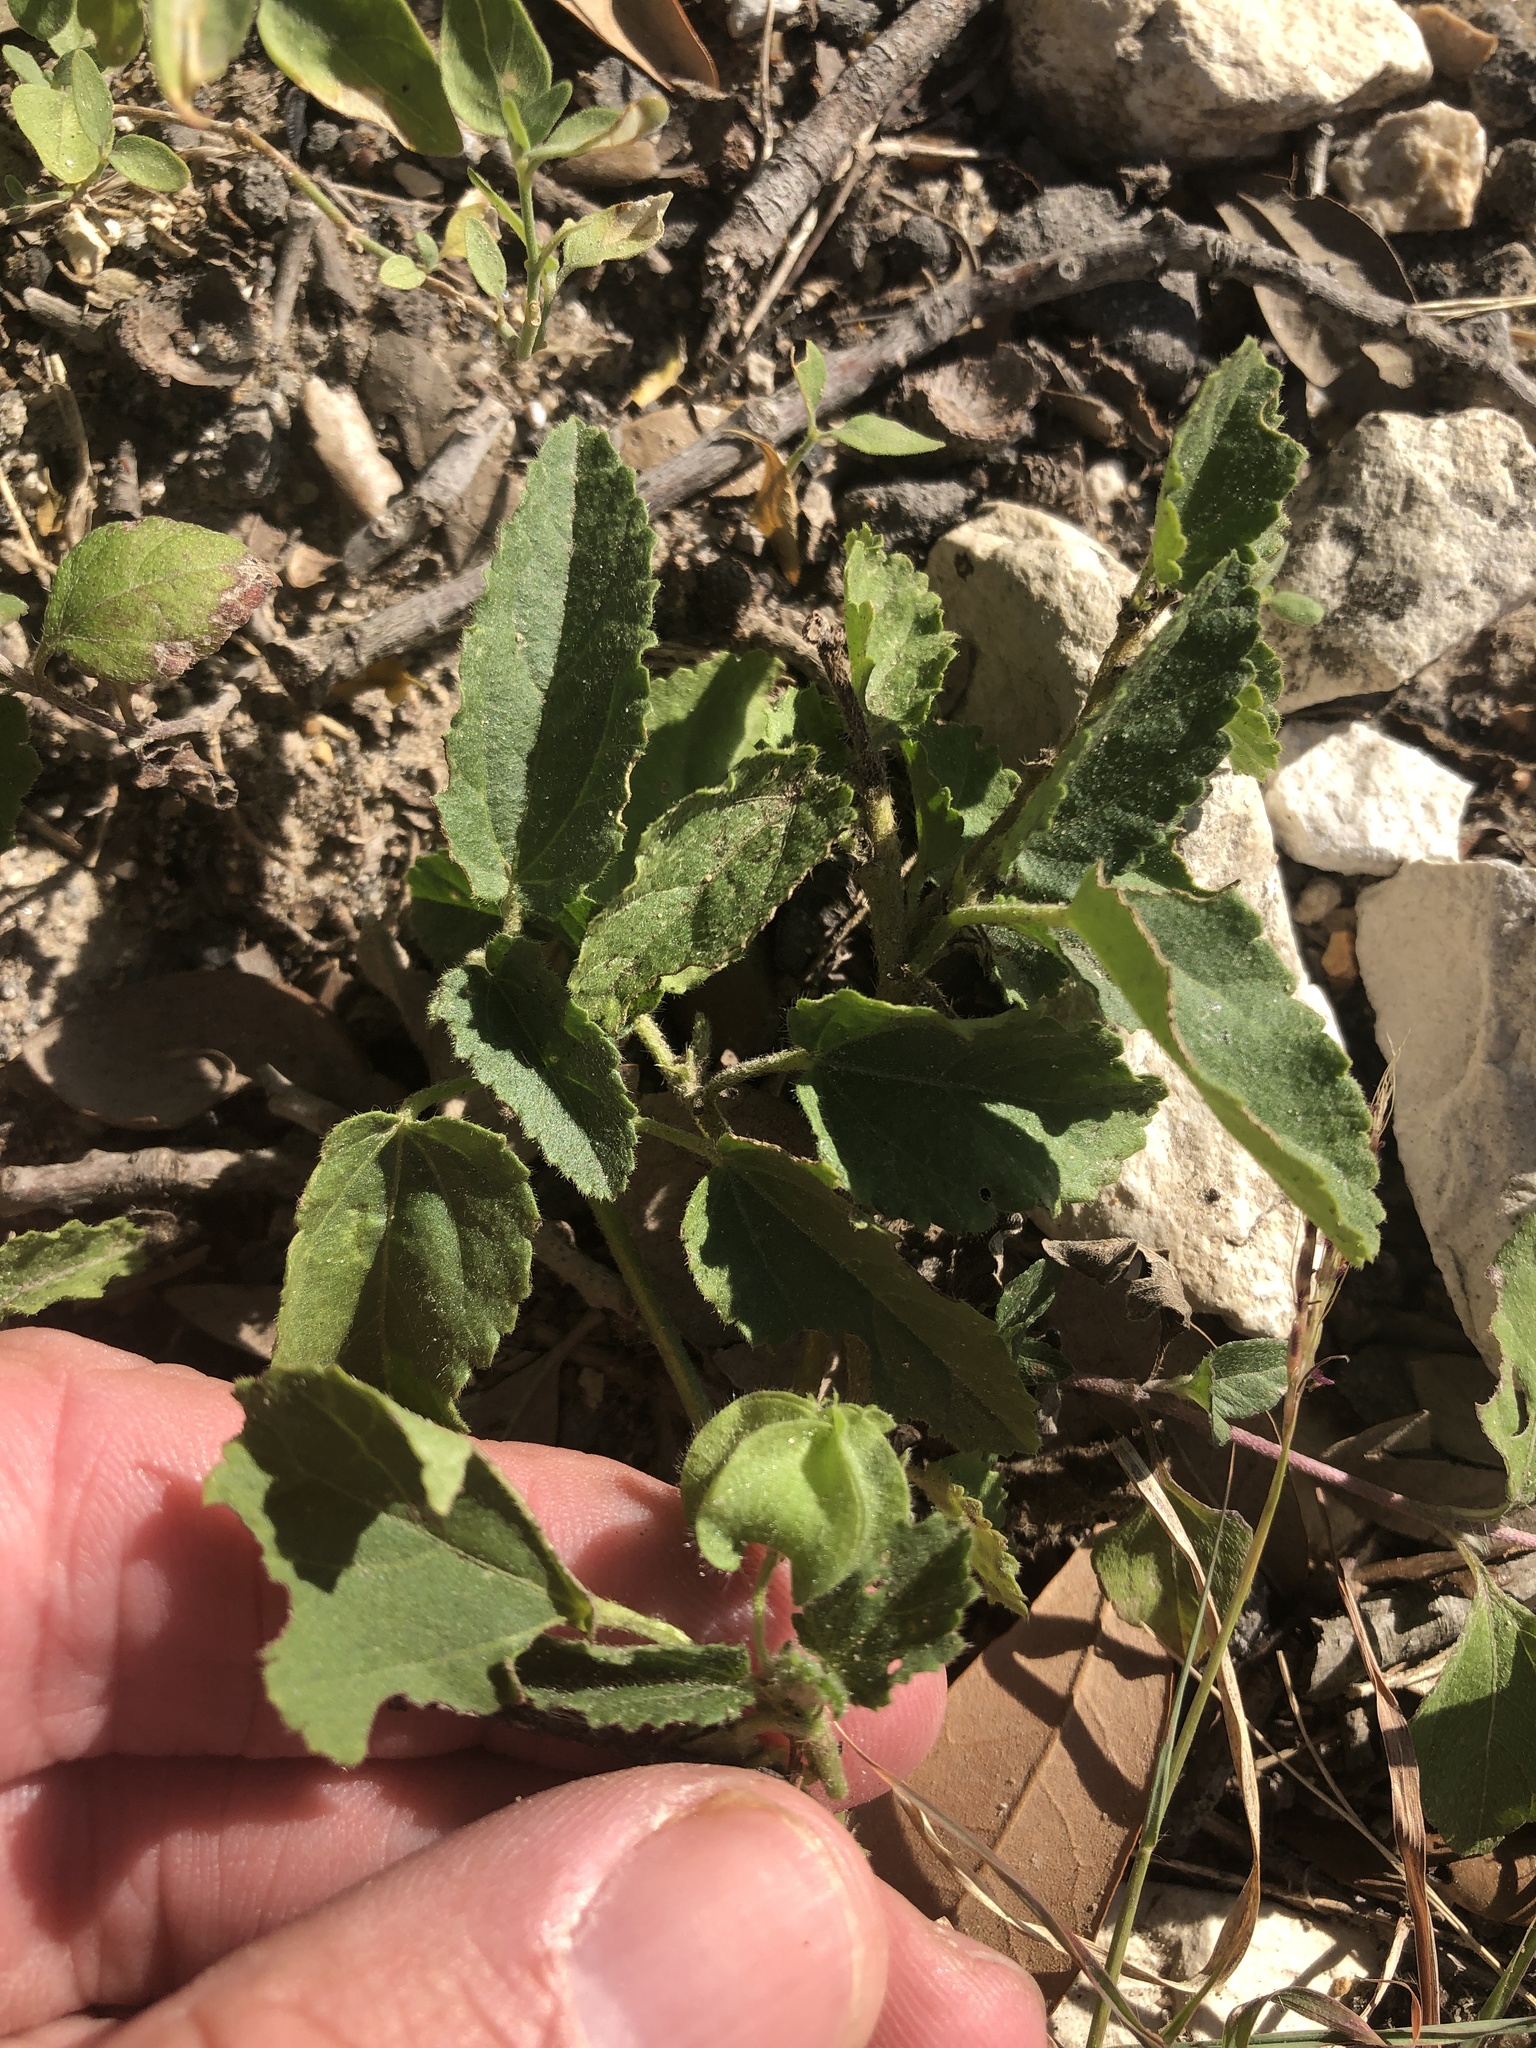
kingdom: Plantae
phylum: Tracheophyta
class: Magnoliopsida
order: Malvales
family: Malvaceae
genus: Rhynchosida
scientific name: Rhynchosida physocalyx
